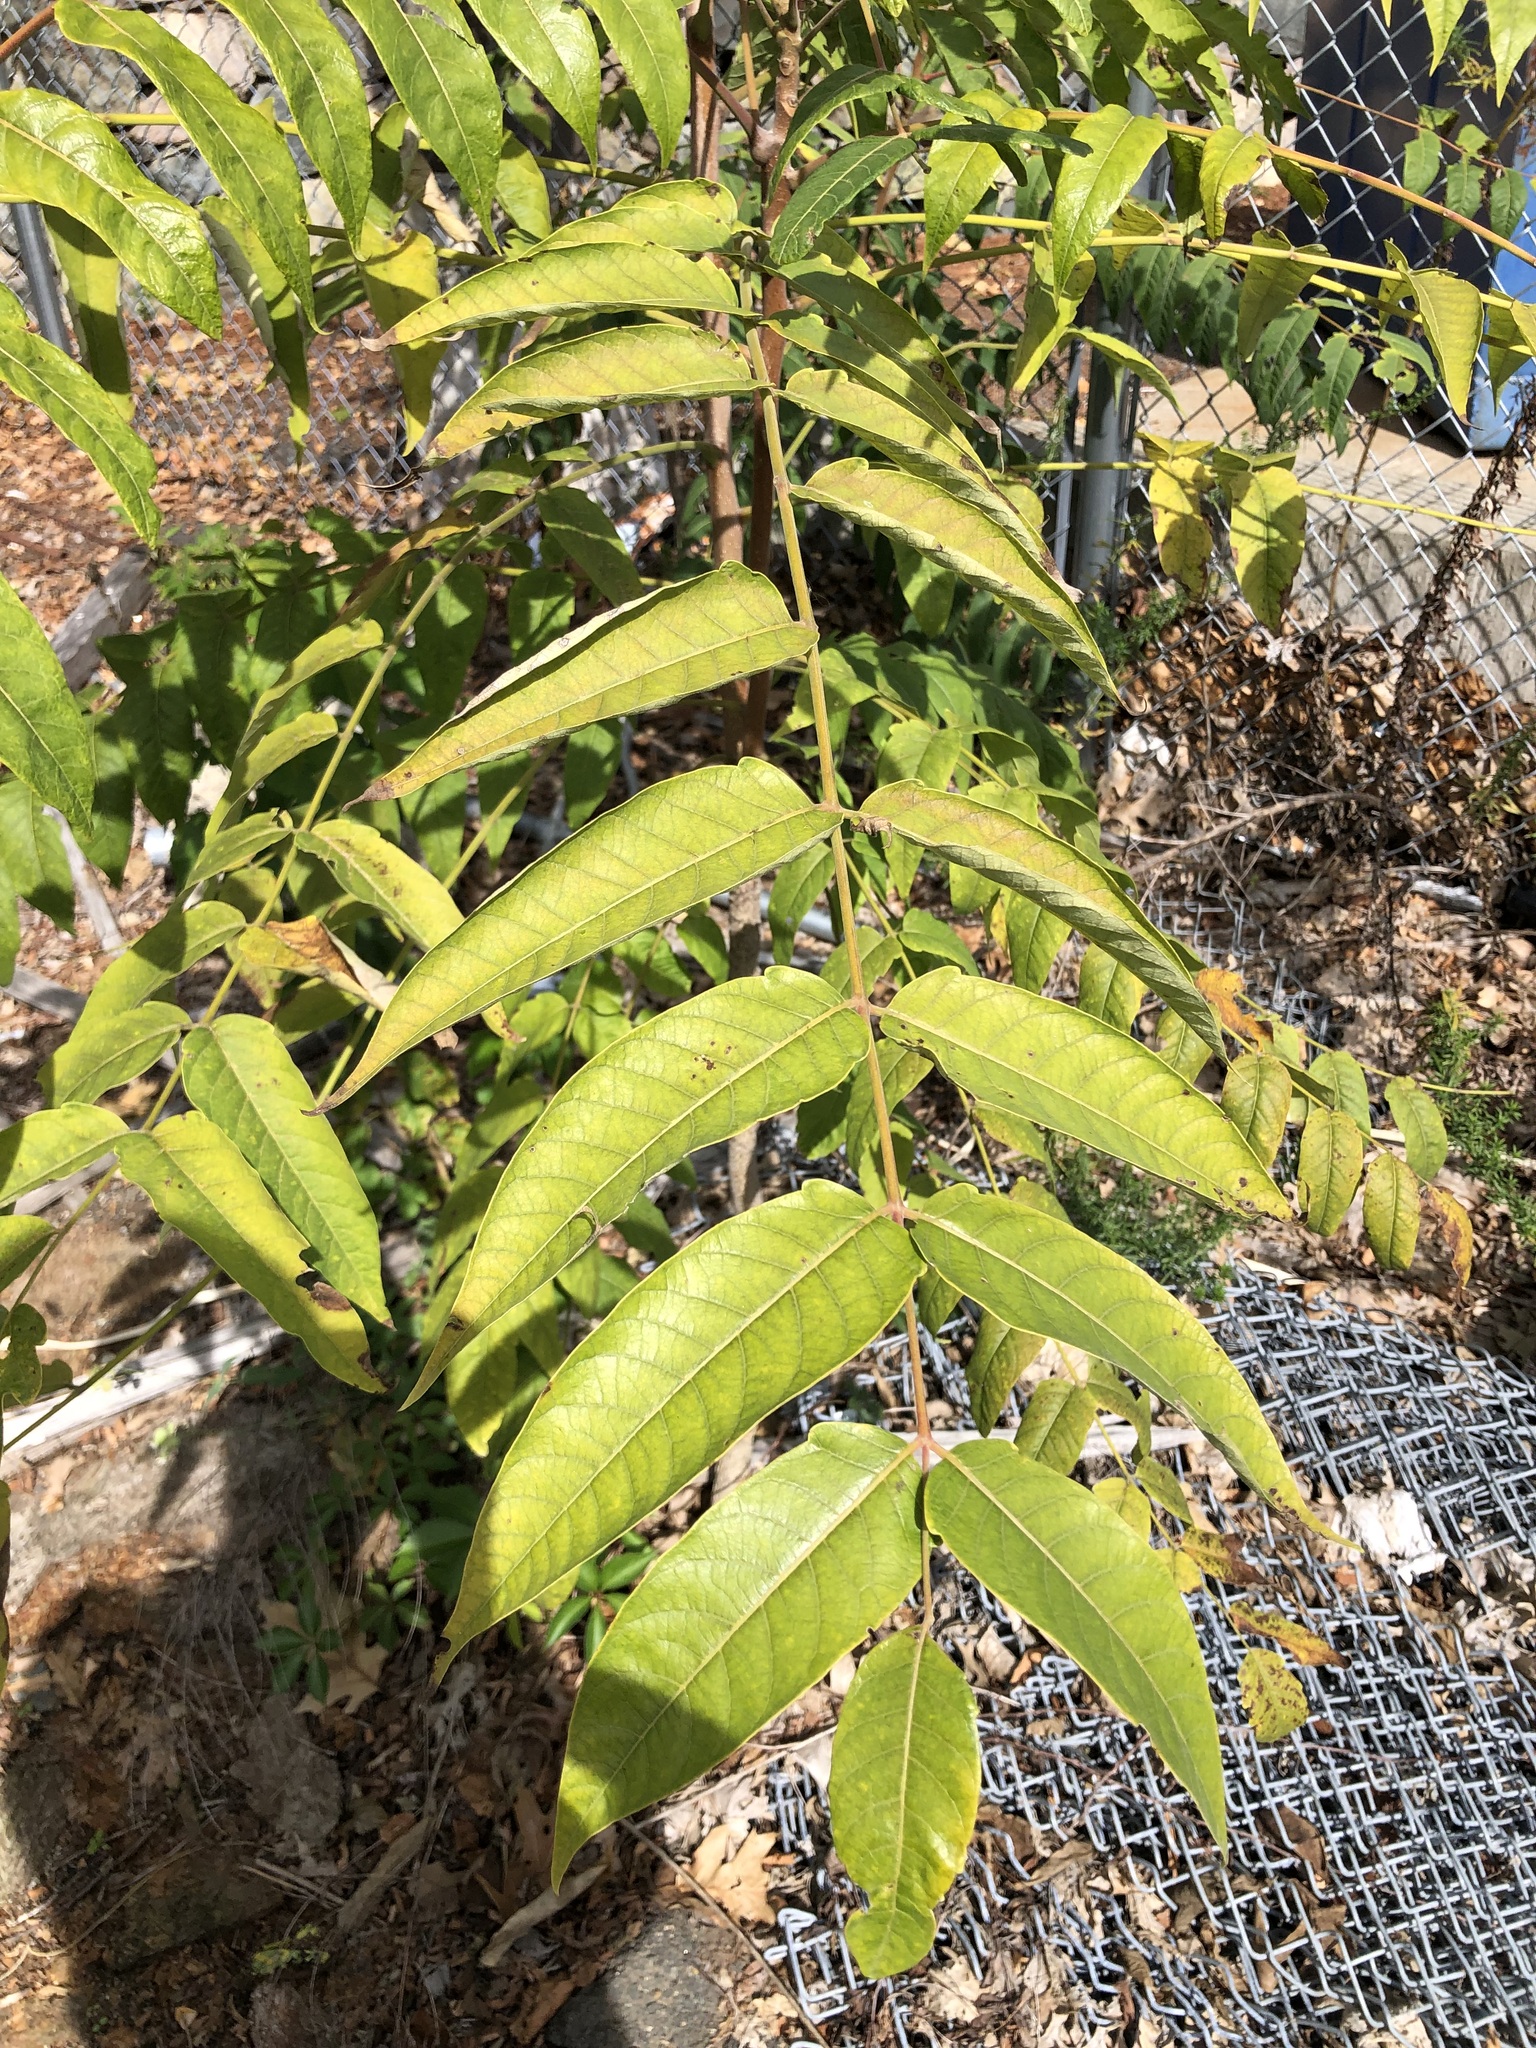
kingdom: Plantae
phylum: Tracheophyta
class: Magnoliopsida
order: Sapindales
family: Simaroubaceae
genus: Ailanthus
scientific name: Ailanthus altissima
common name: Tree-of-heaven
